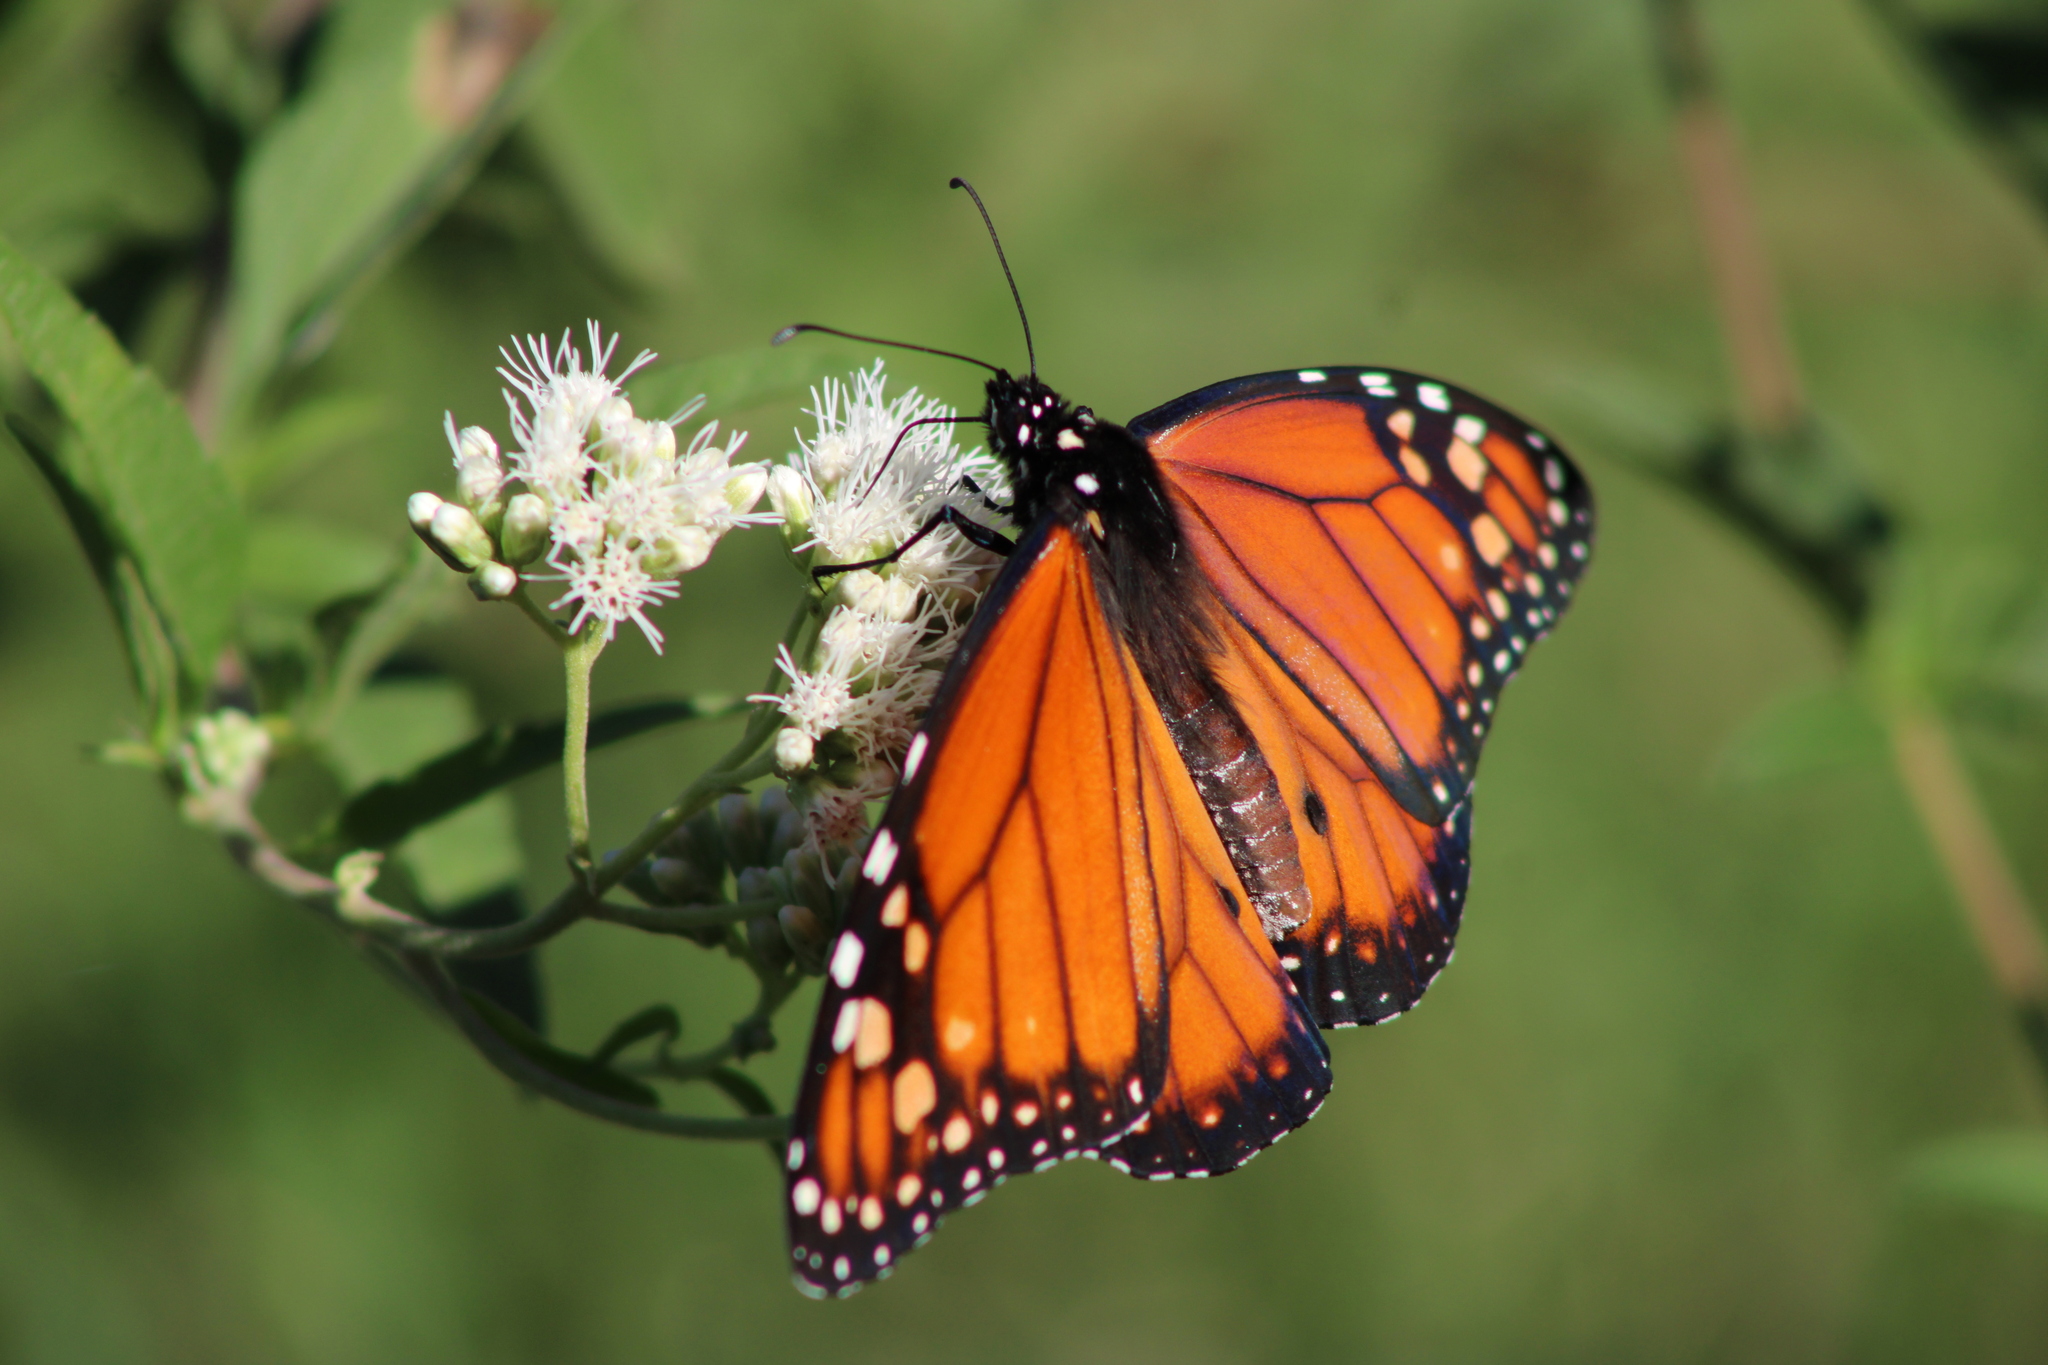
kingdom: Animalia
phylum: Arthropoda
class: Insecta
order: Lepidoptera
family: Nymphalidae
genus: Danaus
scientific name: Danaus erippus
